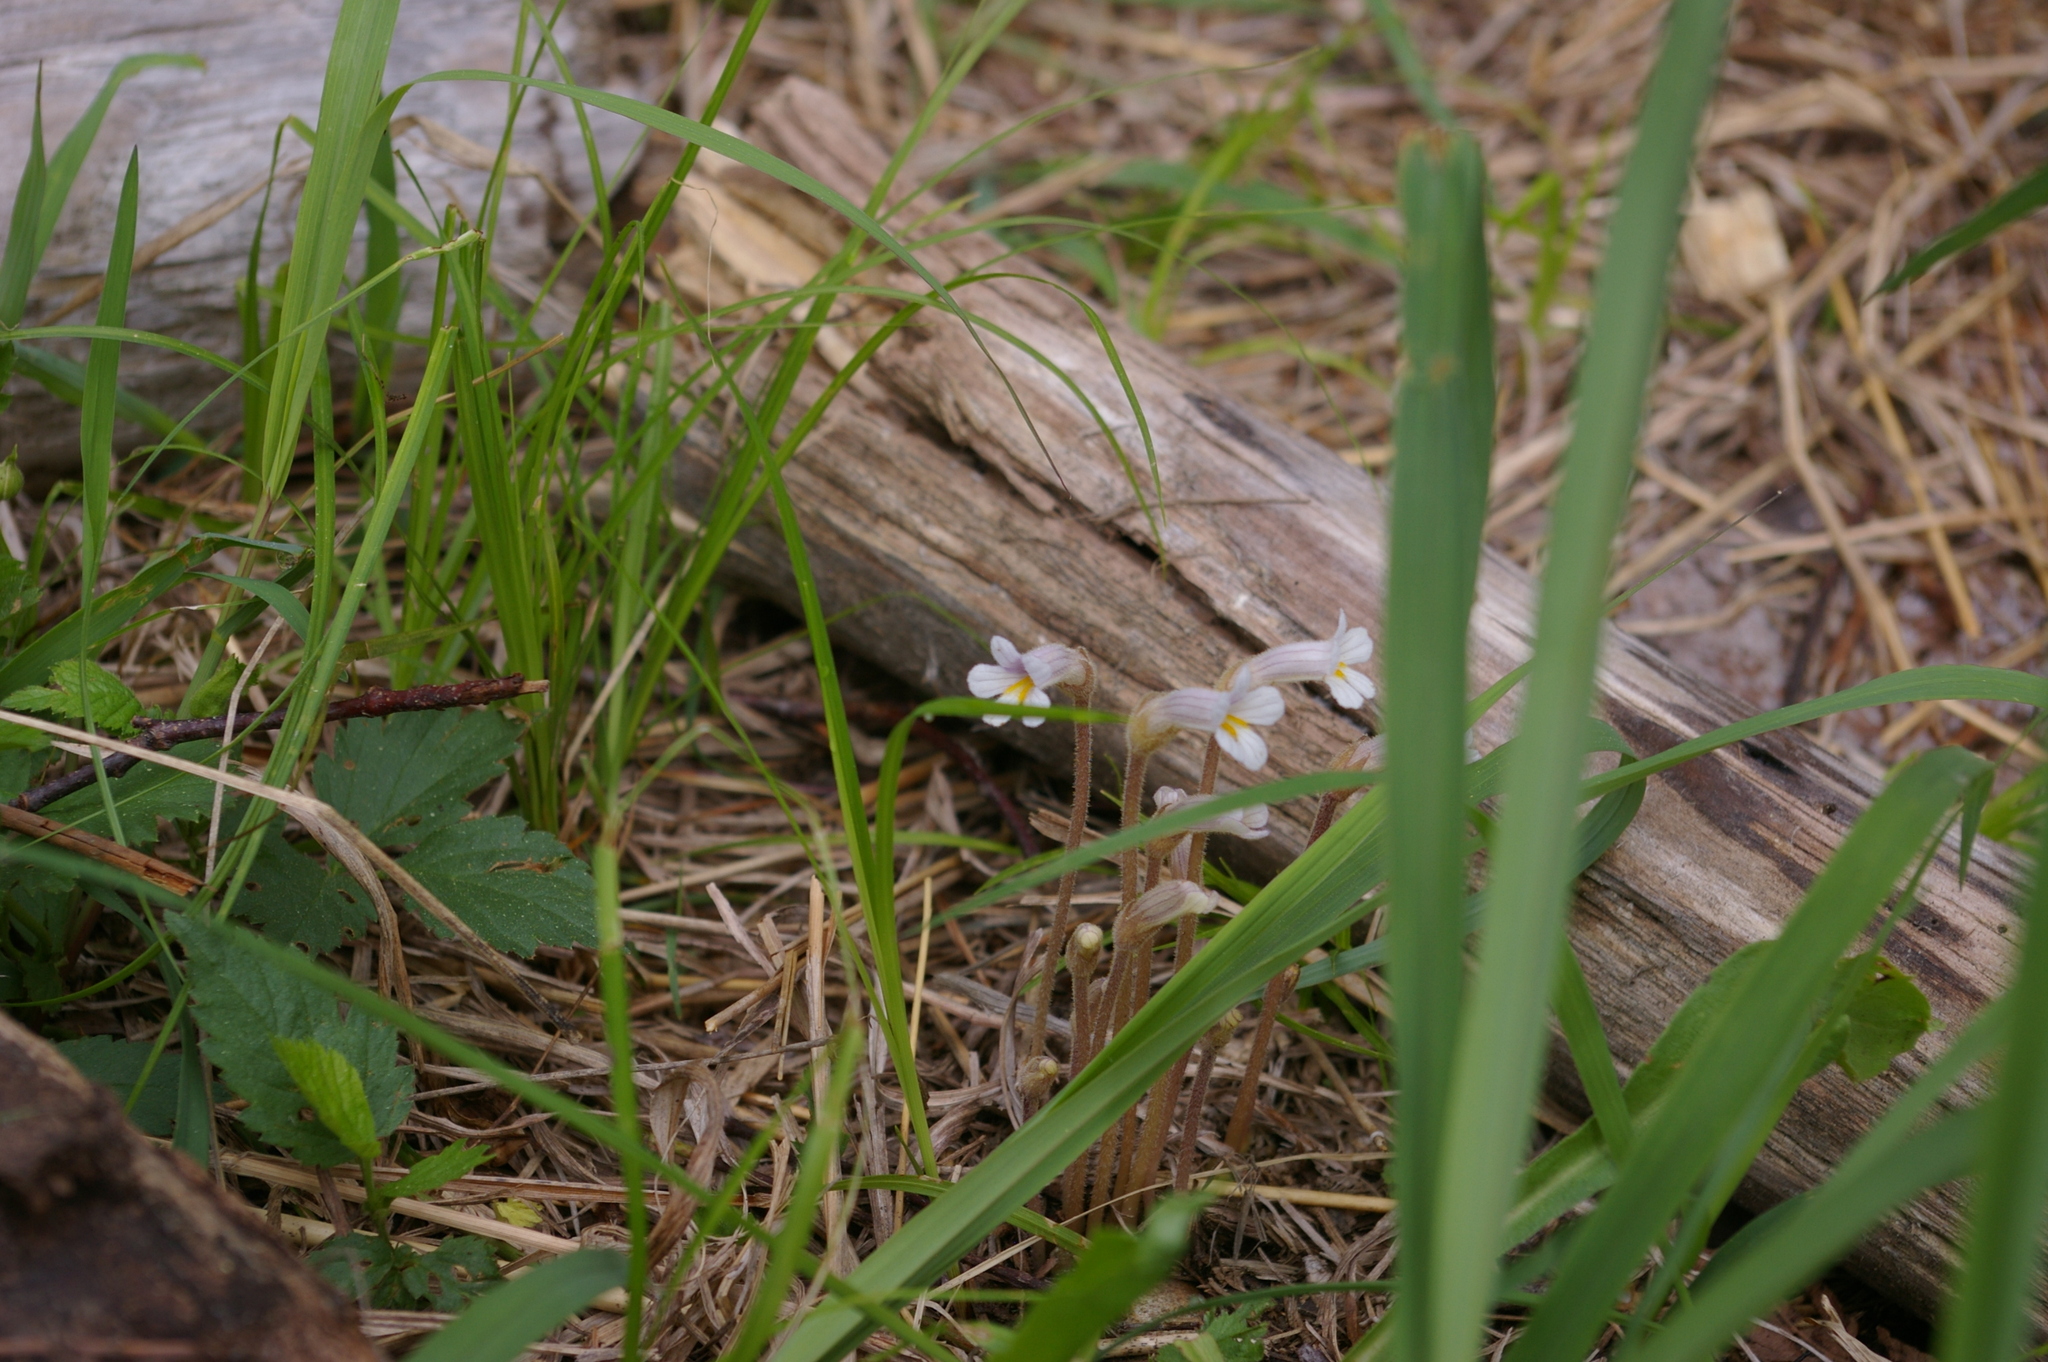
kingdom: Plantae
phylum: Tracheophyta
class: Magnoliopsida
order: Lamiales
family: Orobanchaceae
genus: Aphyllon
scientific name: Aphyllon uniflorum
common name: One-flowered broomrape
